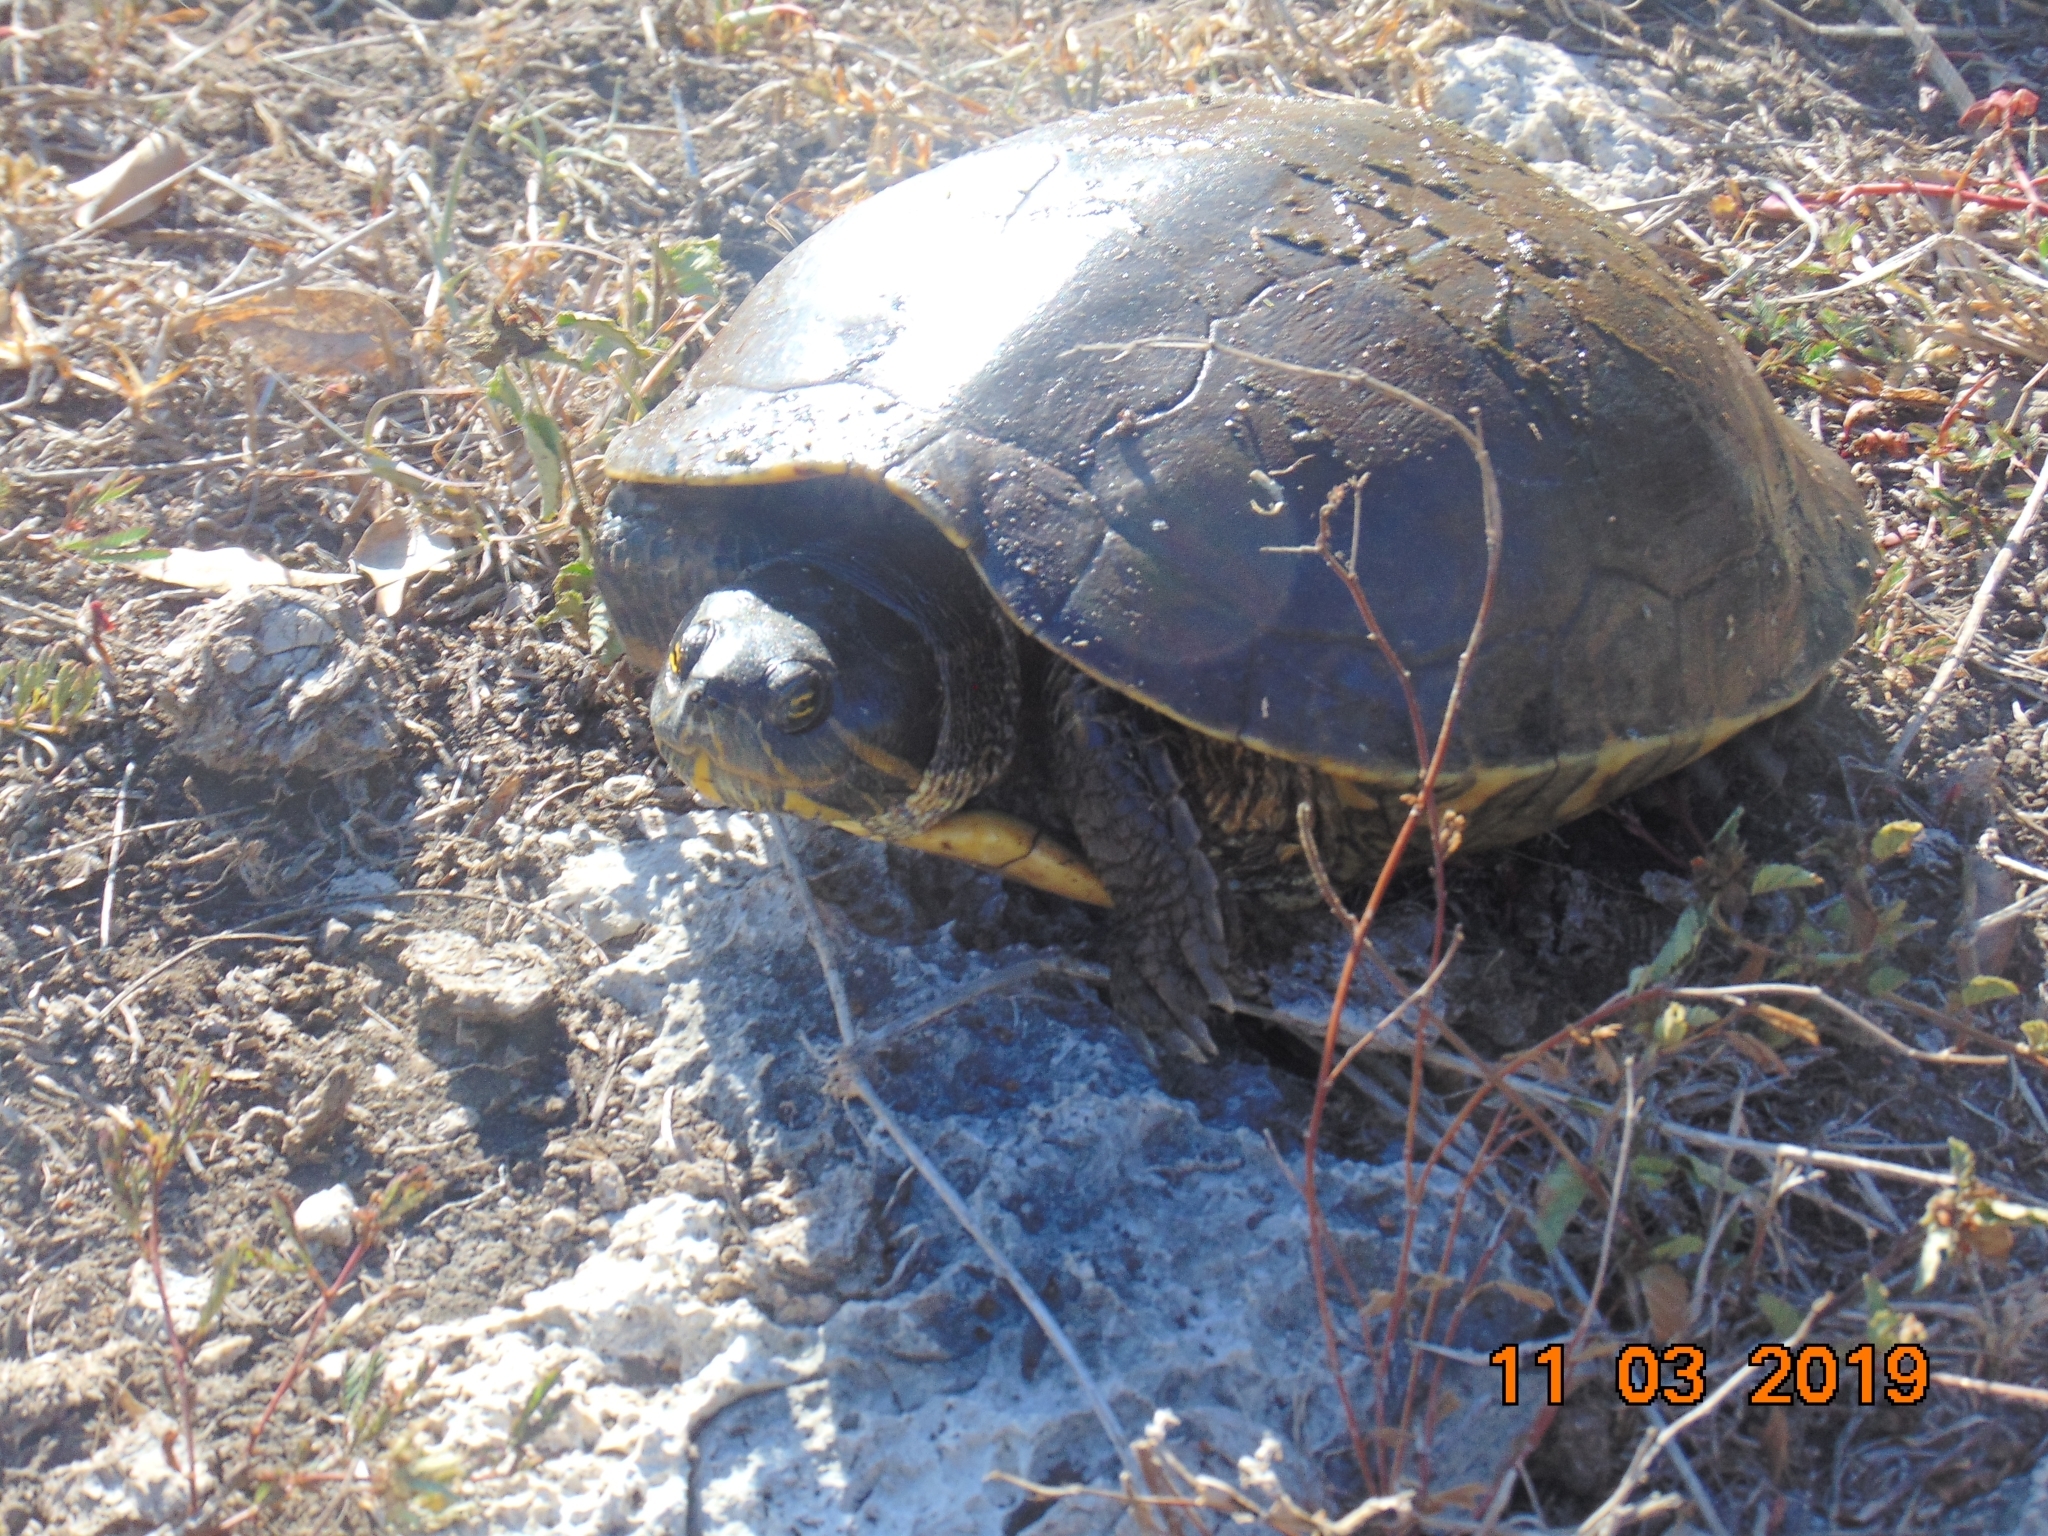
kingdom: Animalia
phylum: Chordata
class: Testudines
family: Emydidae
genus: Trachemys
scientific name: Trachemys venusta
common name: Mesoamerican slider
